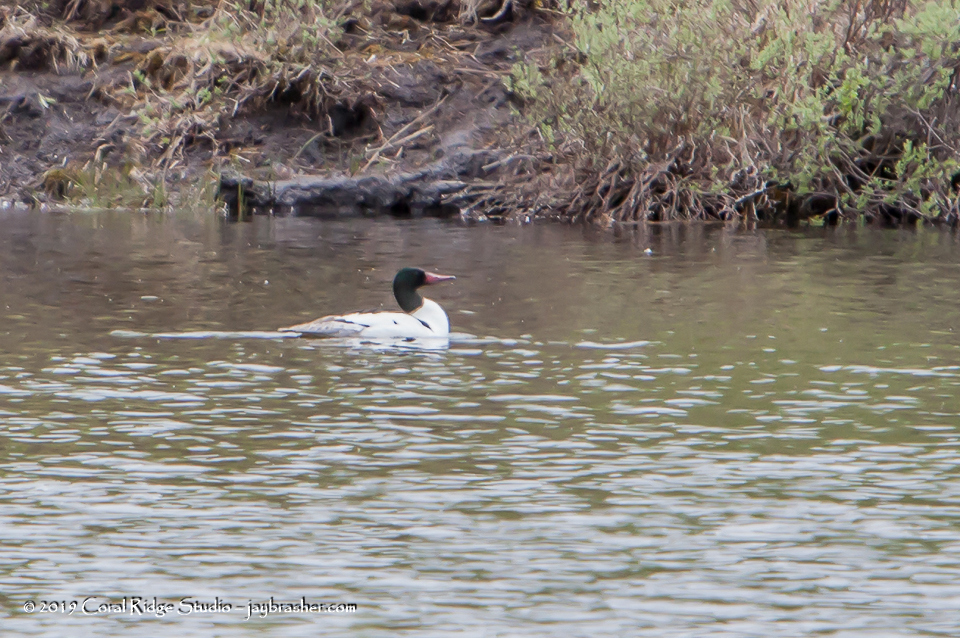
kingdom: Animalia
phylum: Chordata
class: Aves
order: Anseriformes
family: Anatidae
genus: Mergus
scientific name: Mergus merganser
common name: Common merganser
